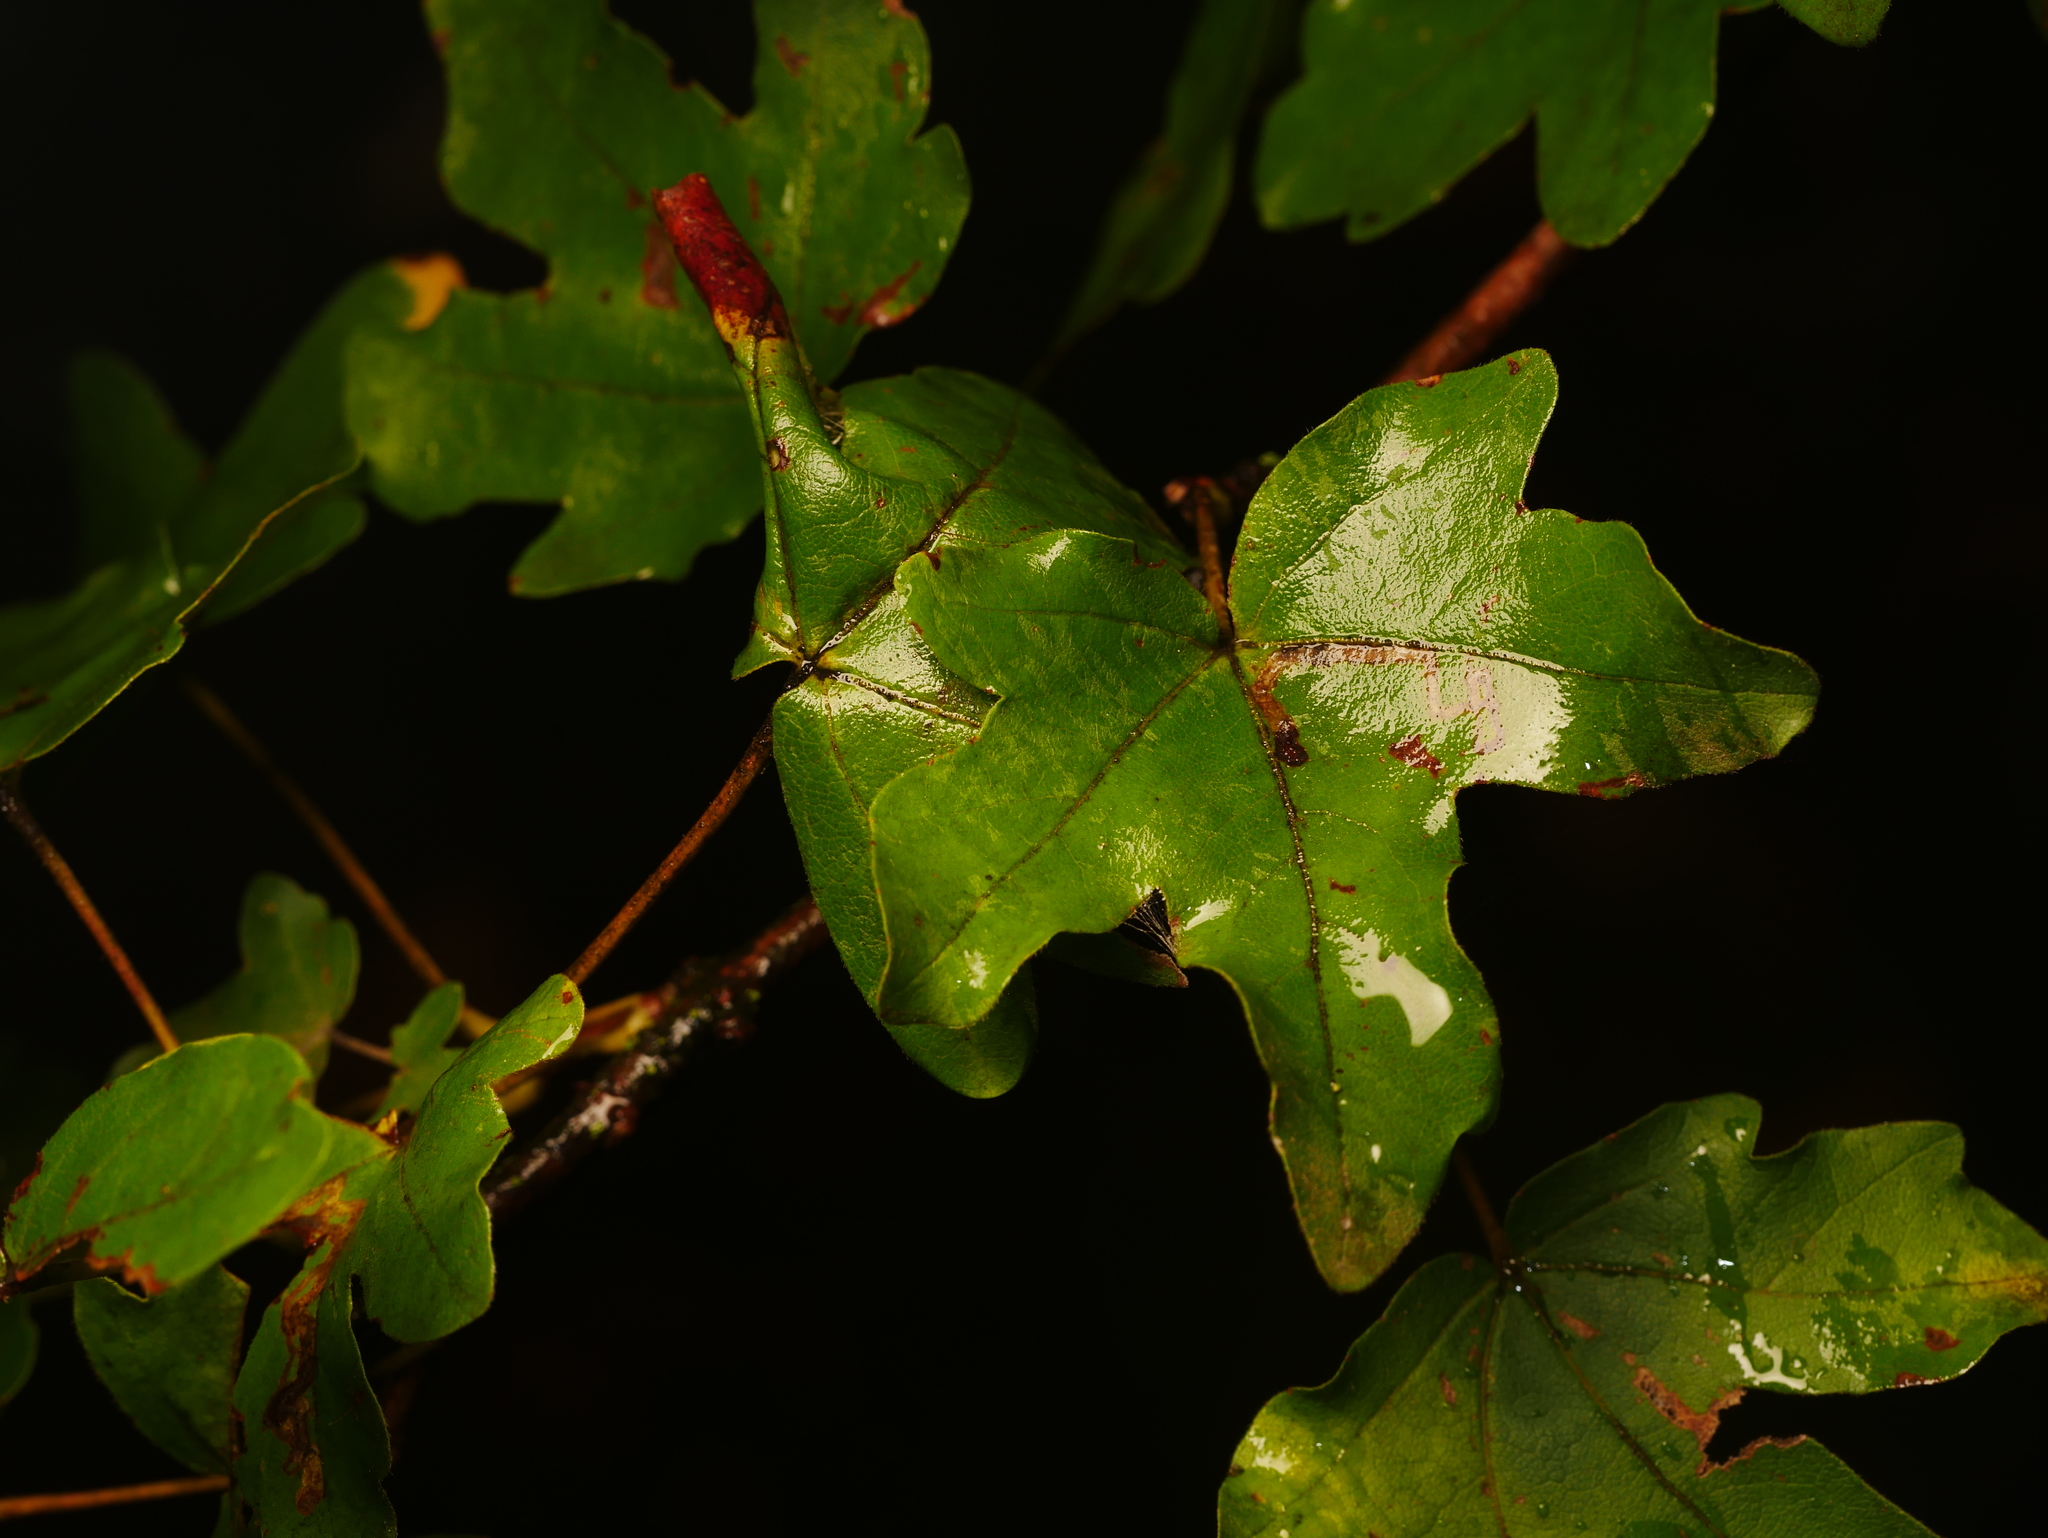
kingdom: Plantae
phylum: Tracheophyta
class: Magnoliopsida
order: Sapindales
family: Sapindaceae
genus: Acer
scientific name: Acer campestre
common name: Field maple
